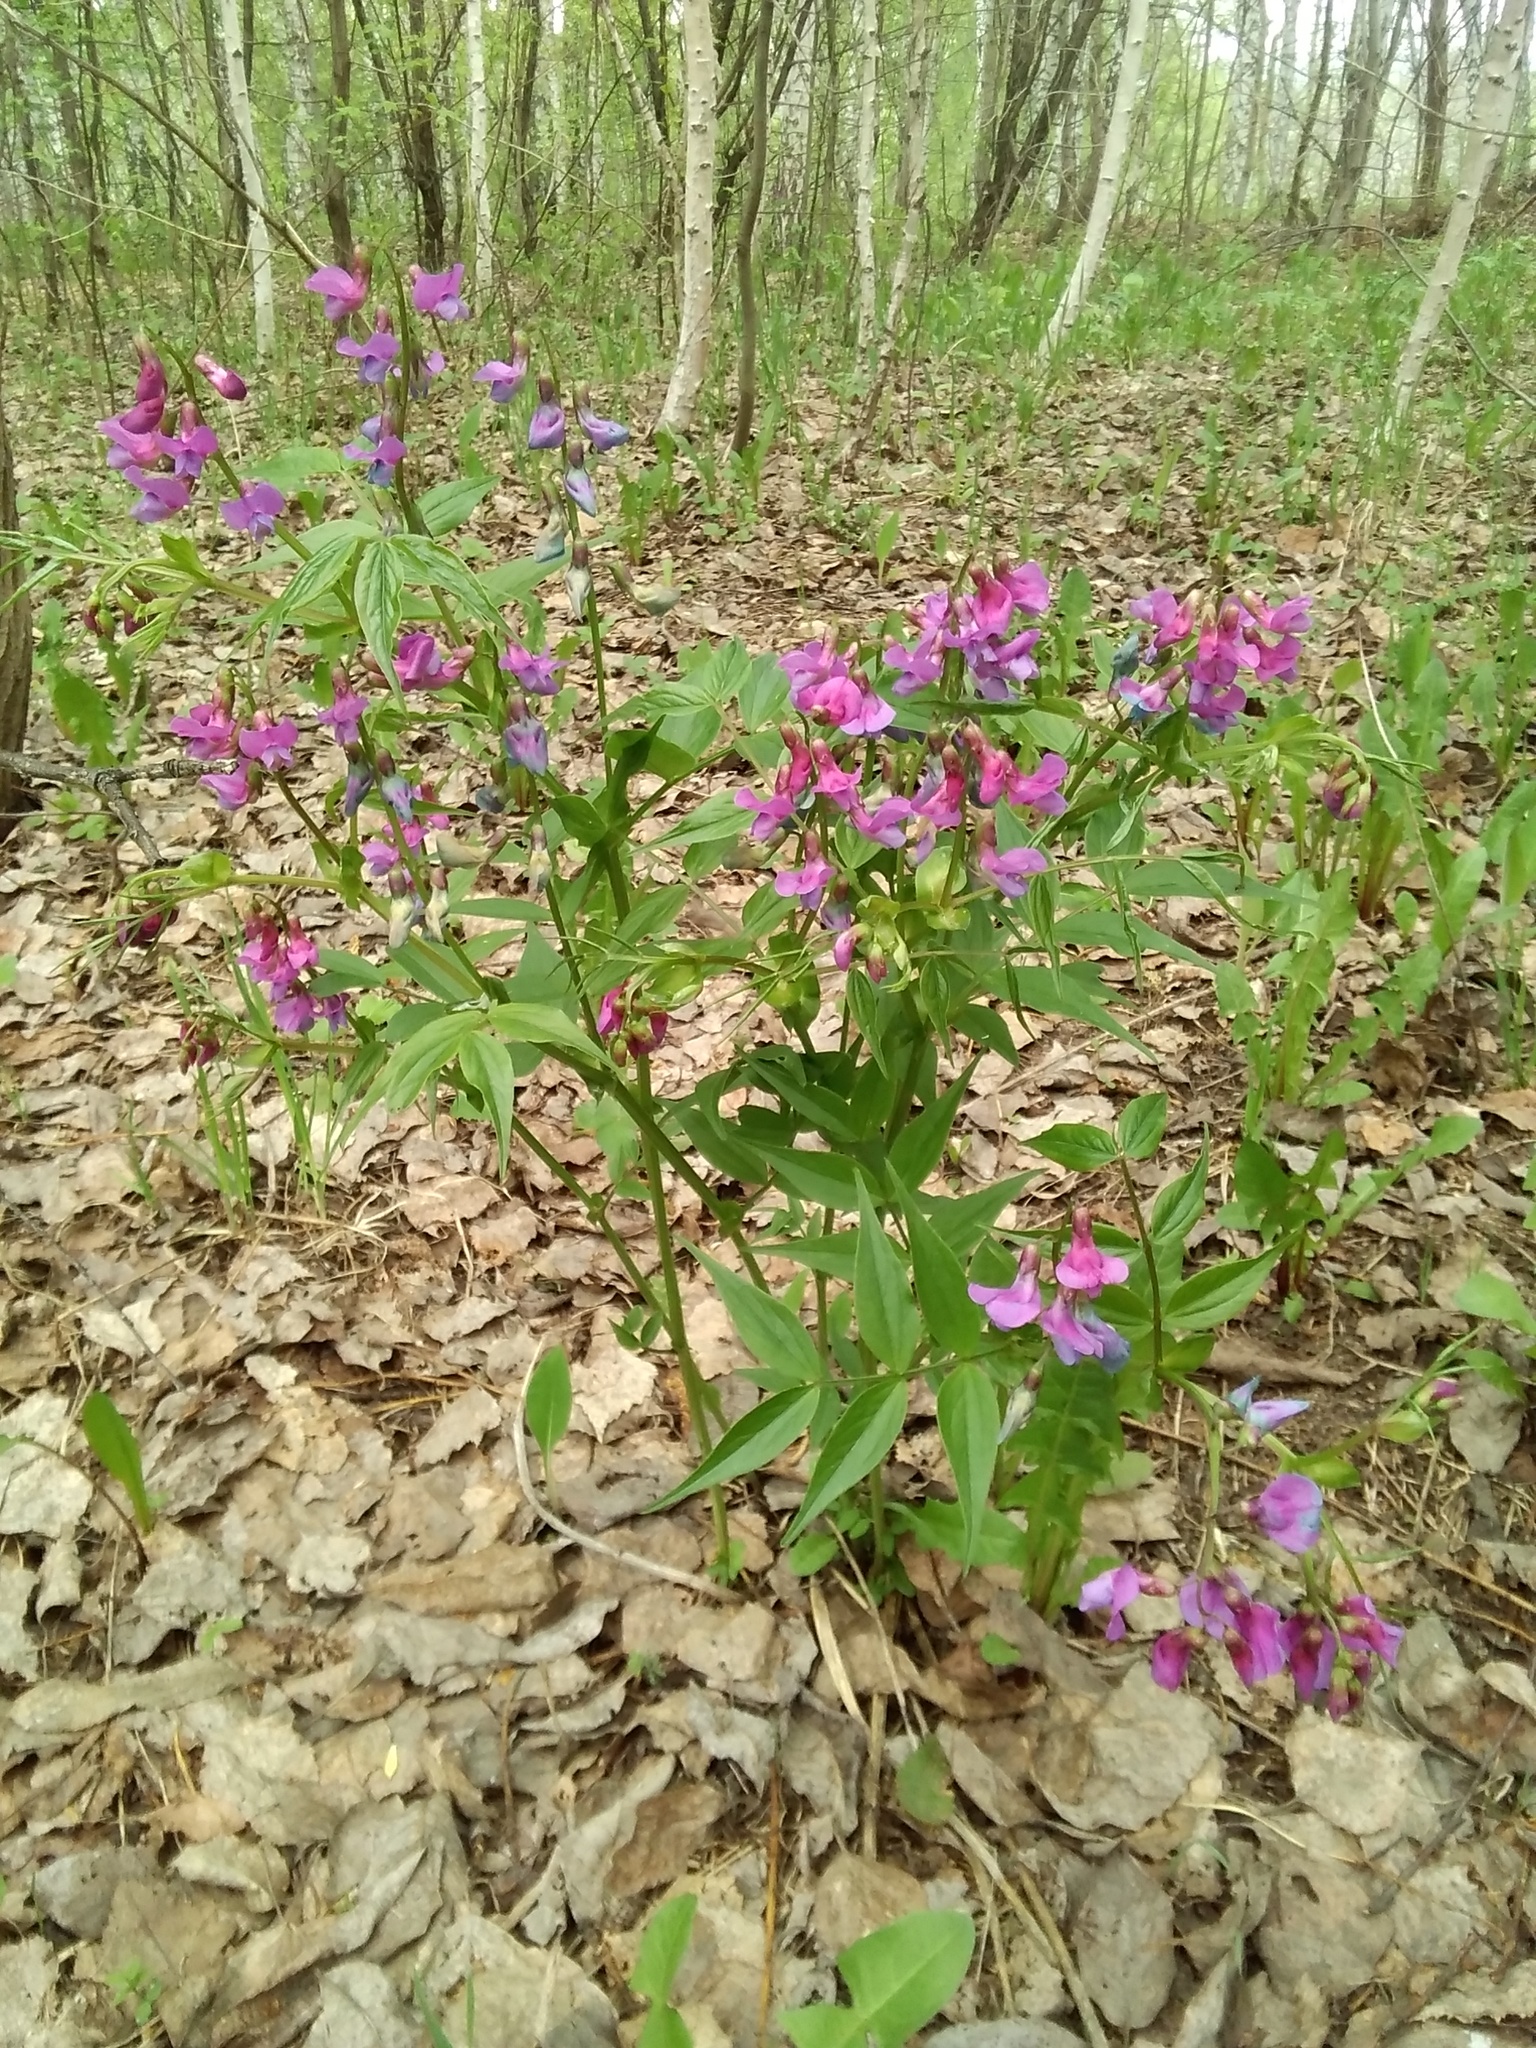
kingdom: Plantae
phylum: Tracheophyta
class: Magnoliopsida
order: Fabales
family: Fabaceae
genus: Lathyrus
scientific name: Lathyrus vernus
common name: Spring pea
